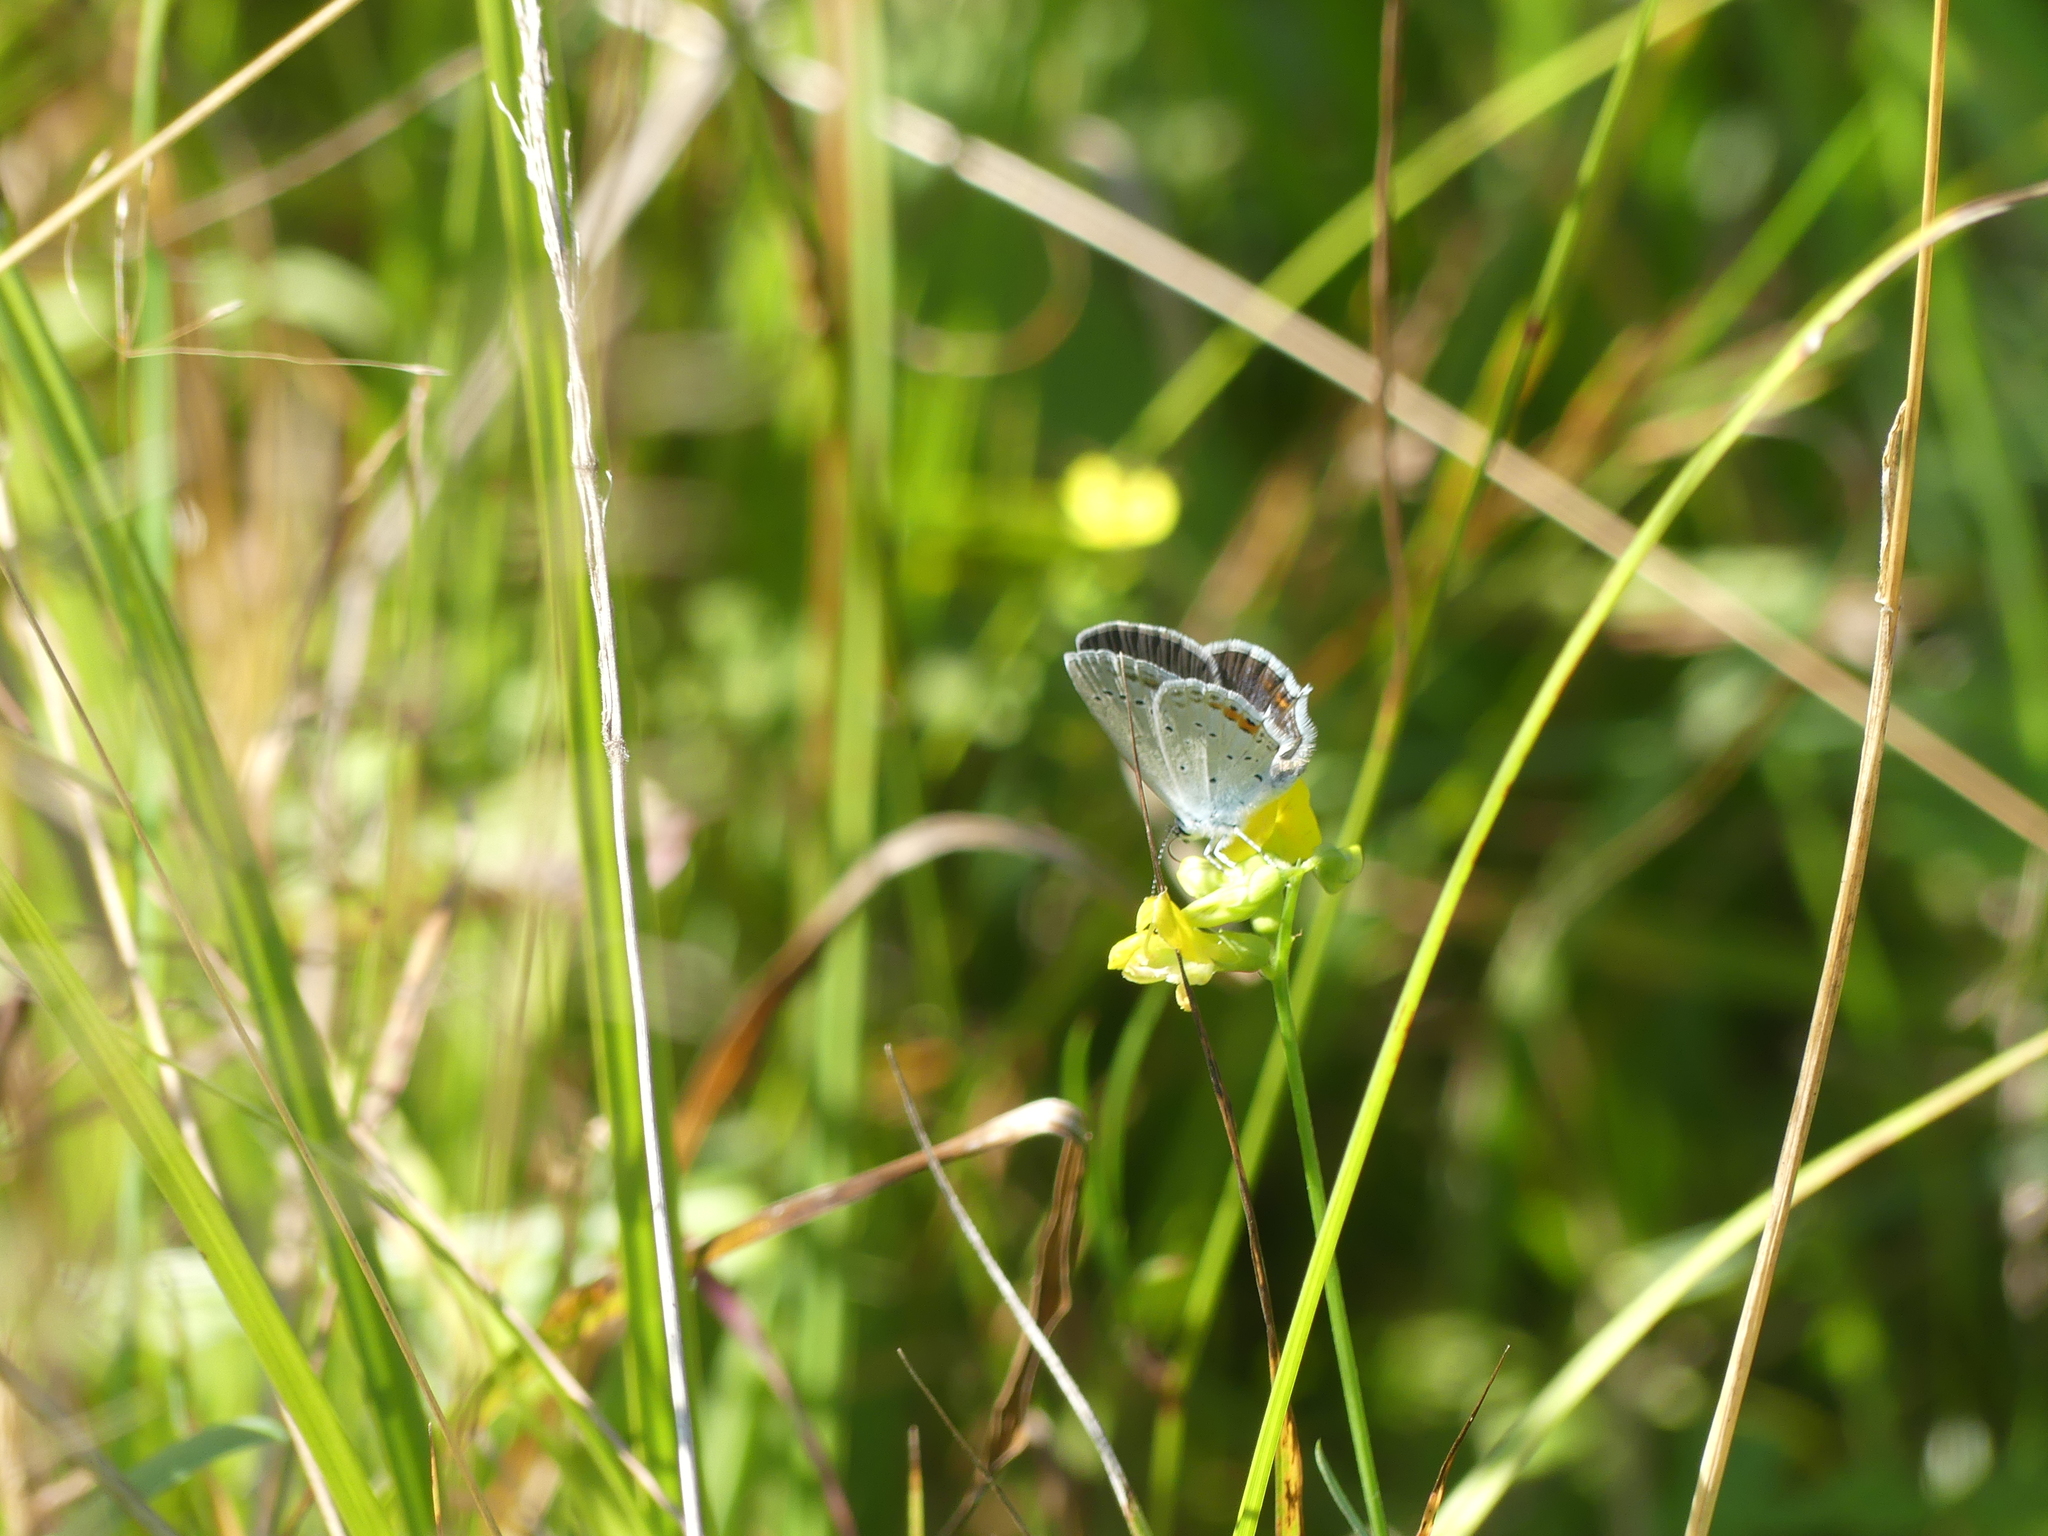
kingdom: Animalia
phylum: Arthropoda
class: Insecta
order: Lepidoptera
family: Lycaenidae
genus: Elkalyce
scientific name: Elkalyce argiades
